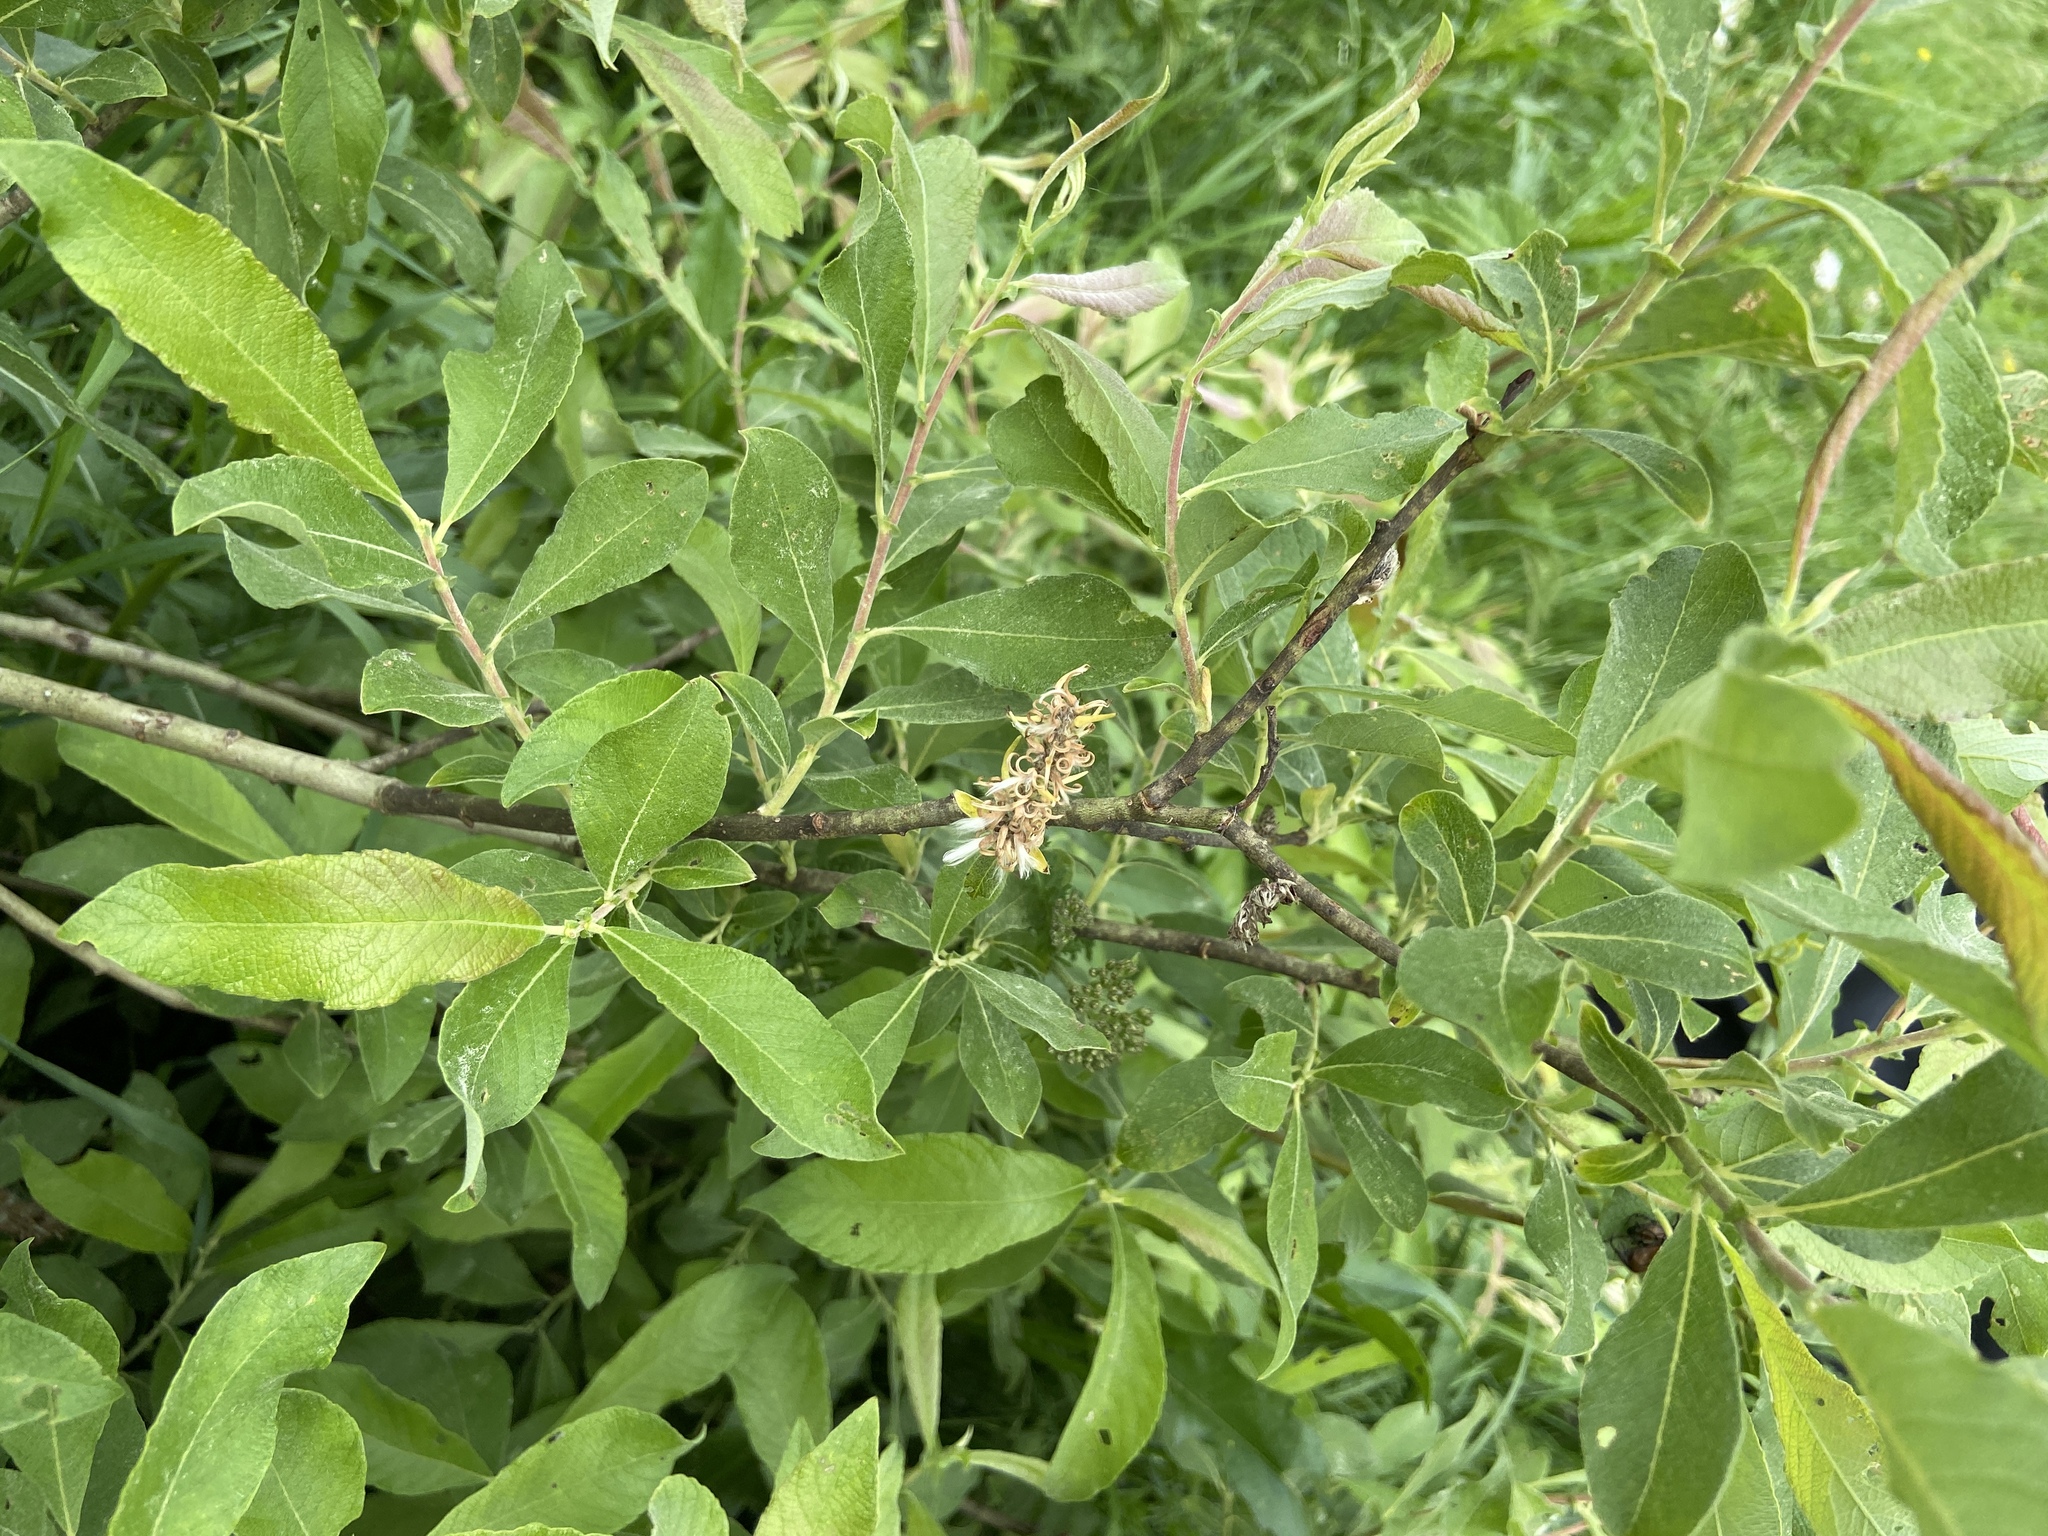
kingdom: Plantae
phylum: Tracheophyta
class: Magnoliopsida
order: Malpighiales
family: Salicaceae
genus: Salix
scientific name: Salix cinerea
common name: Common sallow
